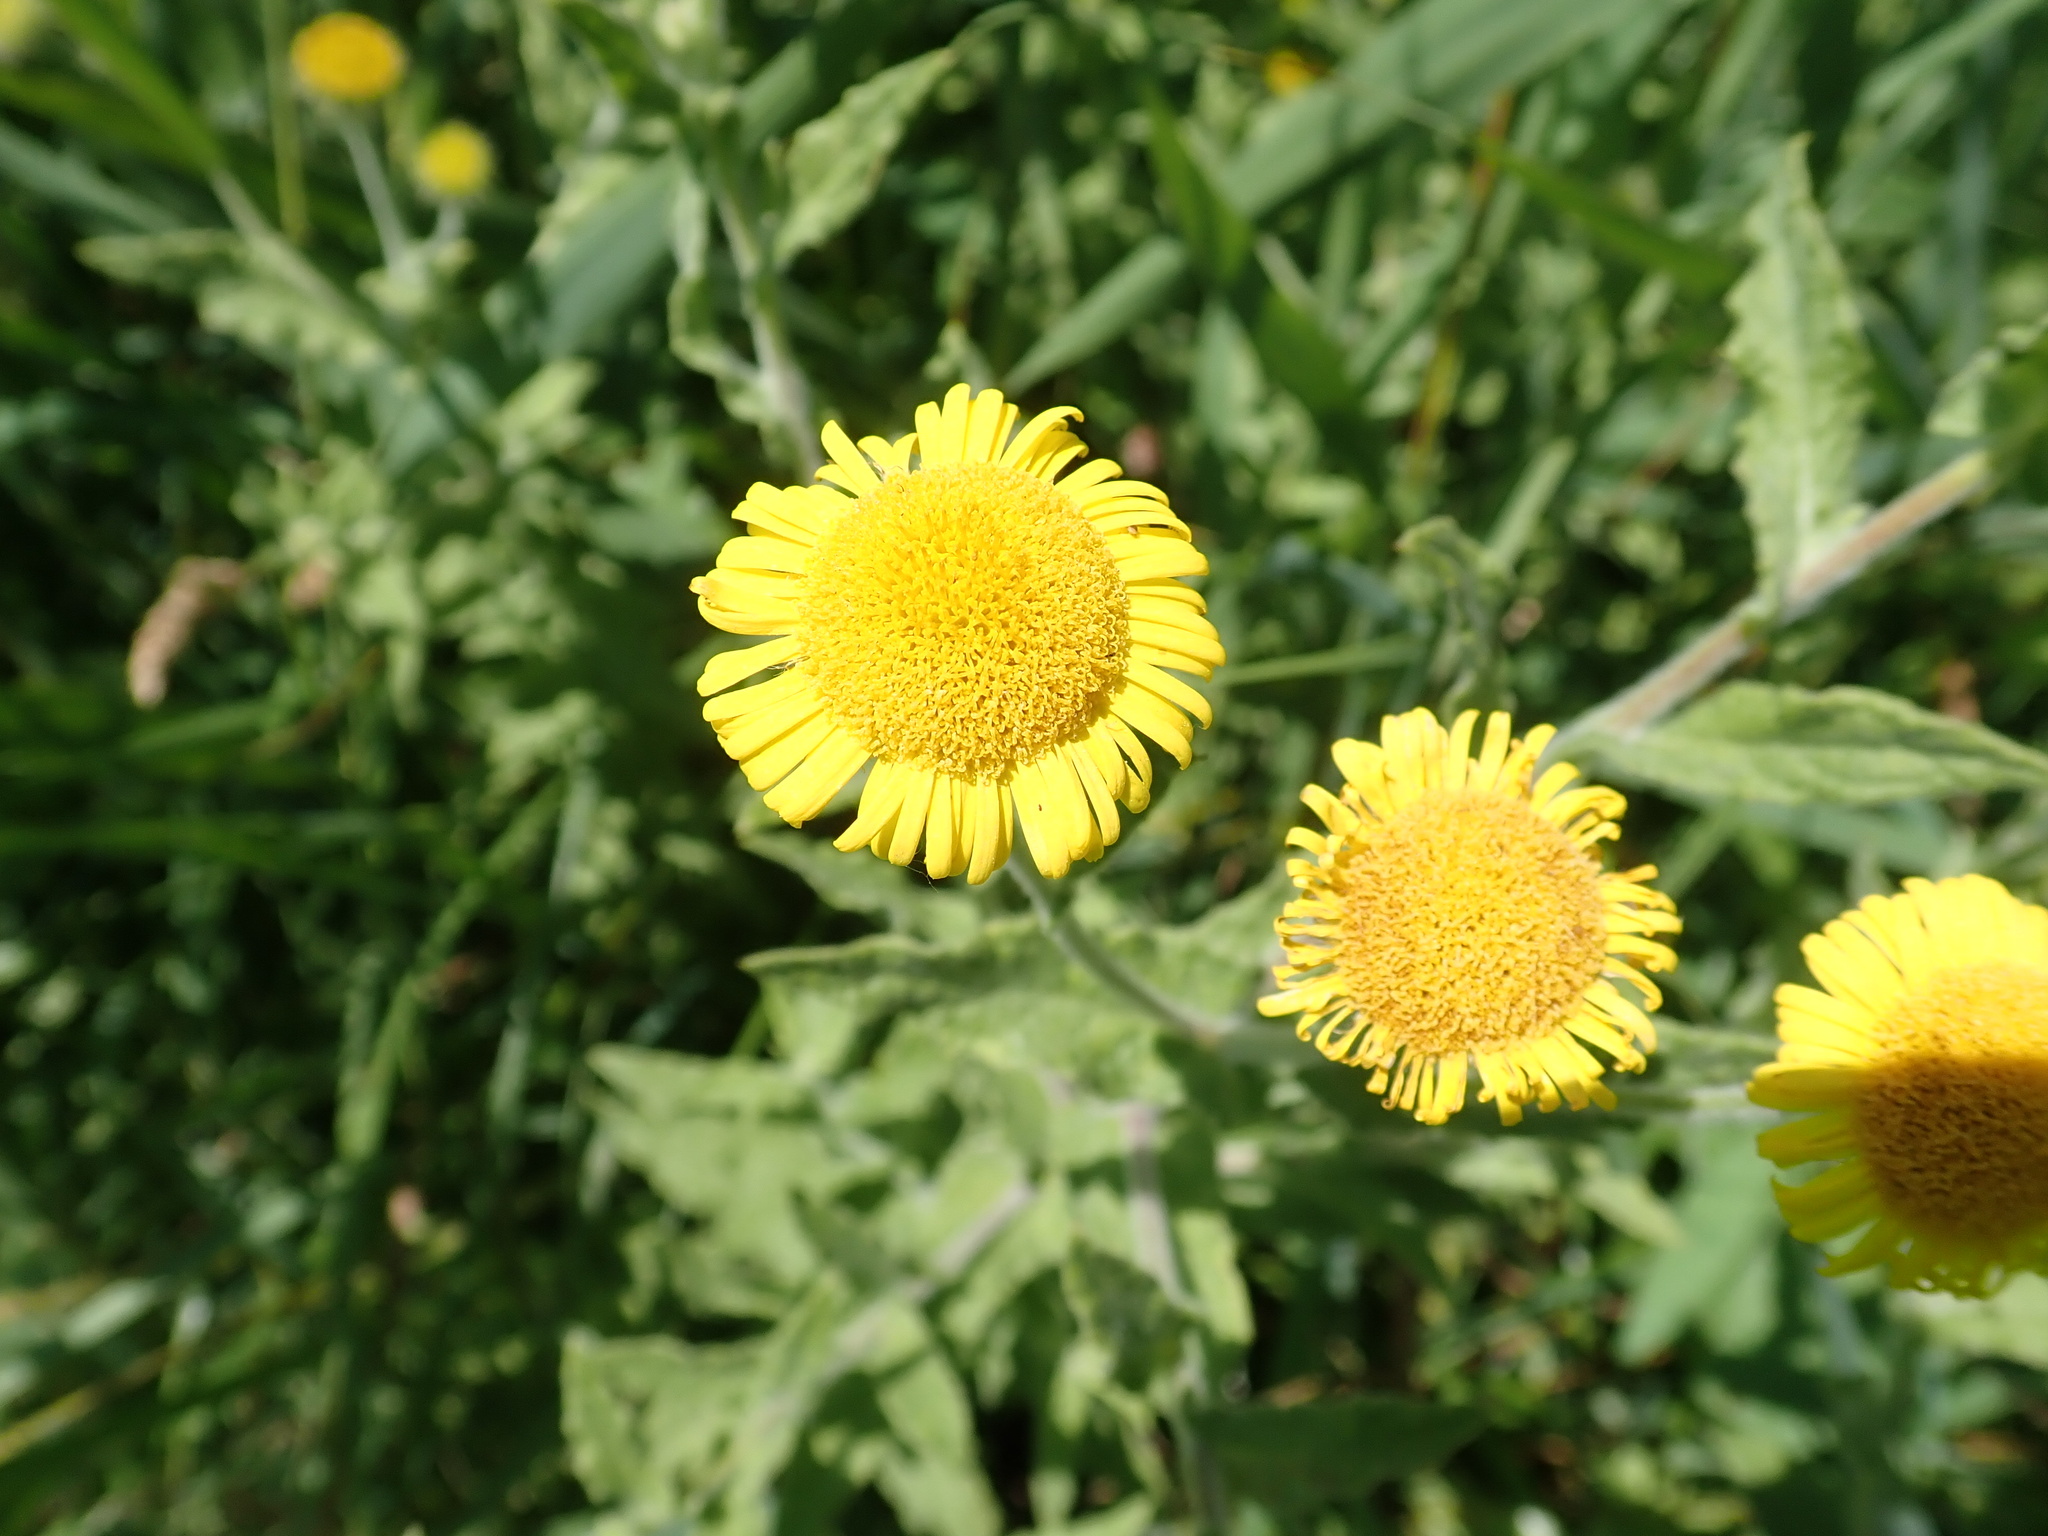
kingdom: Plantae
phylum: Tracheophyta
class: Magnoliopsida
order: Asterales
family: Asteraceae
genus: Pulicaria
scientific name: Pulicaria dysenterica
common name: Common fleabane
